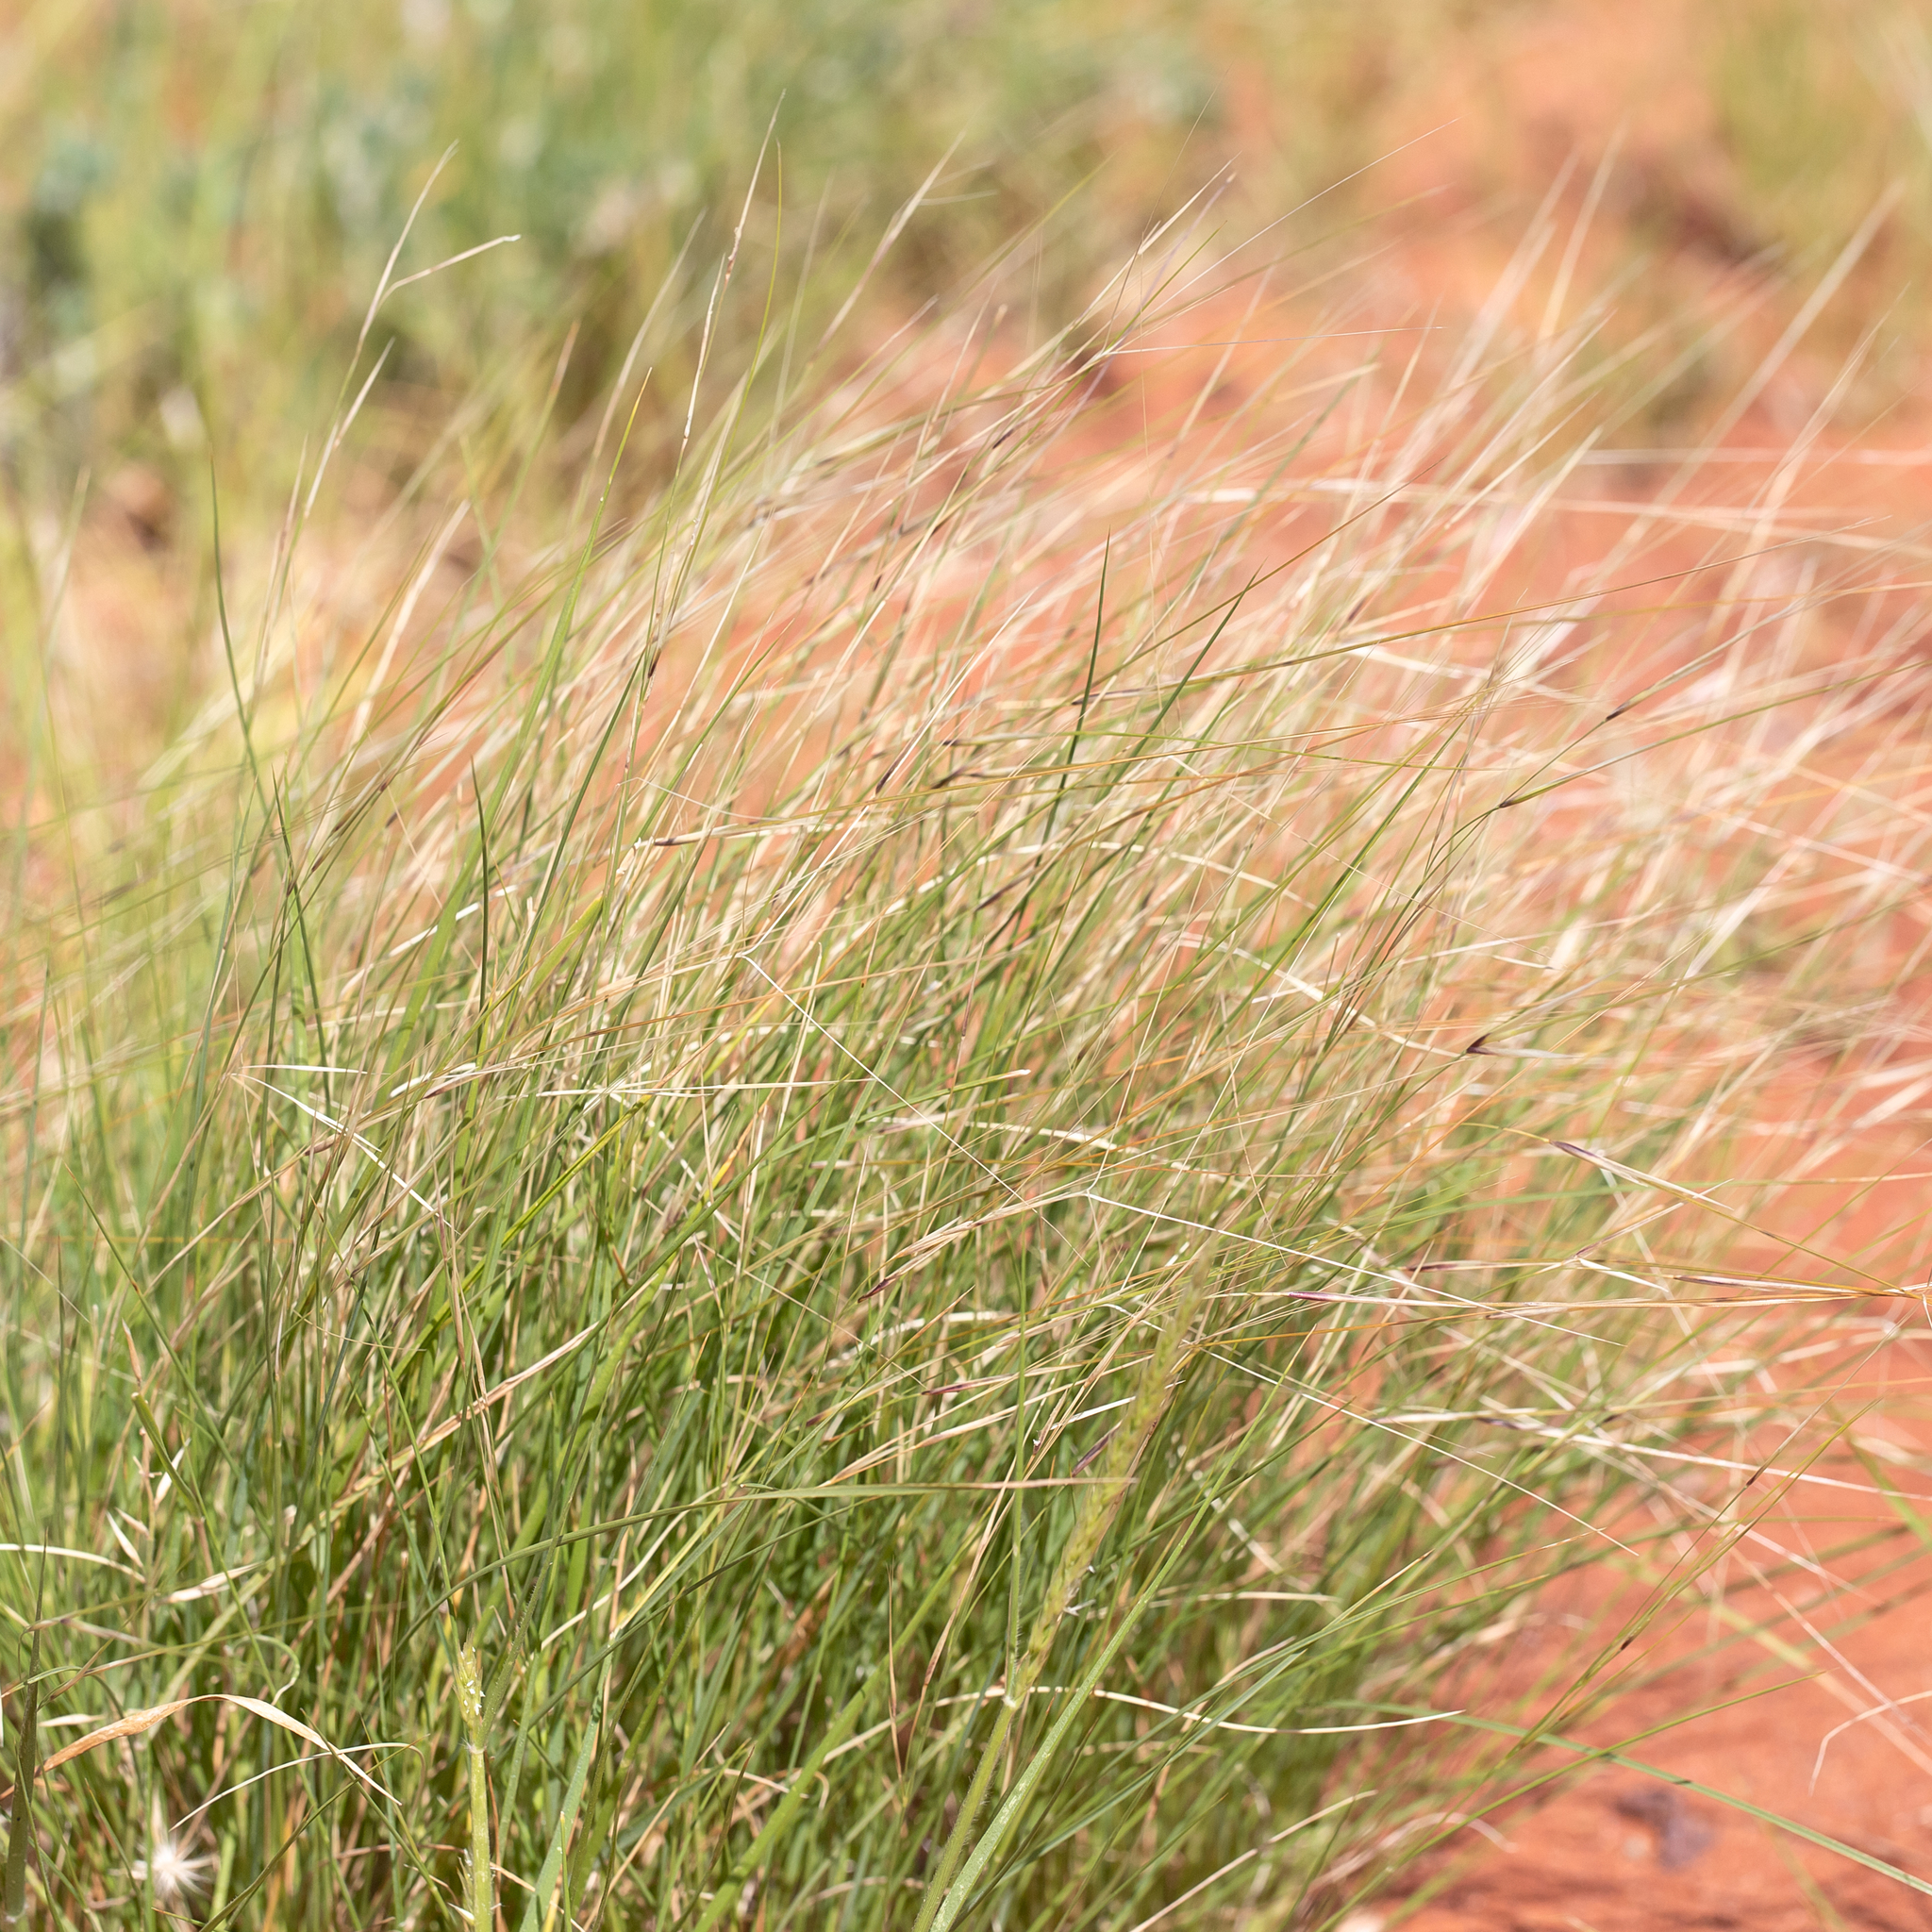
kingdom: Plantae
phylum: Tracheophyta
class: Liliopsida
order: Poales
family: Poaceae
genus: Aristida
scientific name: Aristida contorta
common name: Bunch kerosene grass
